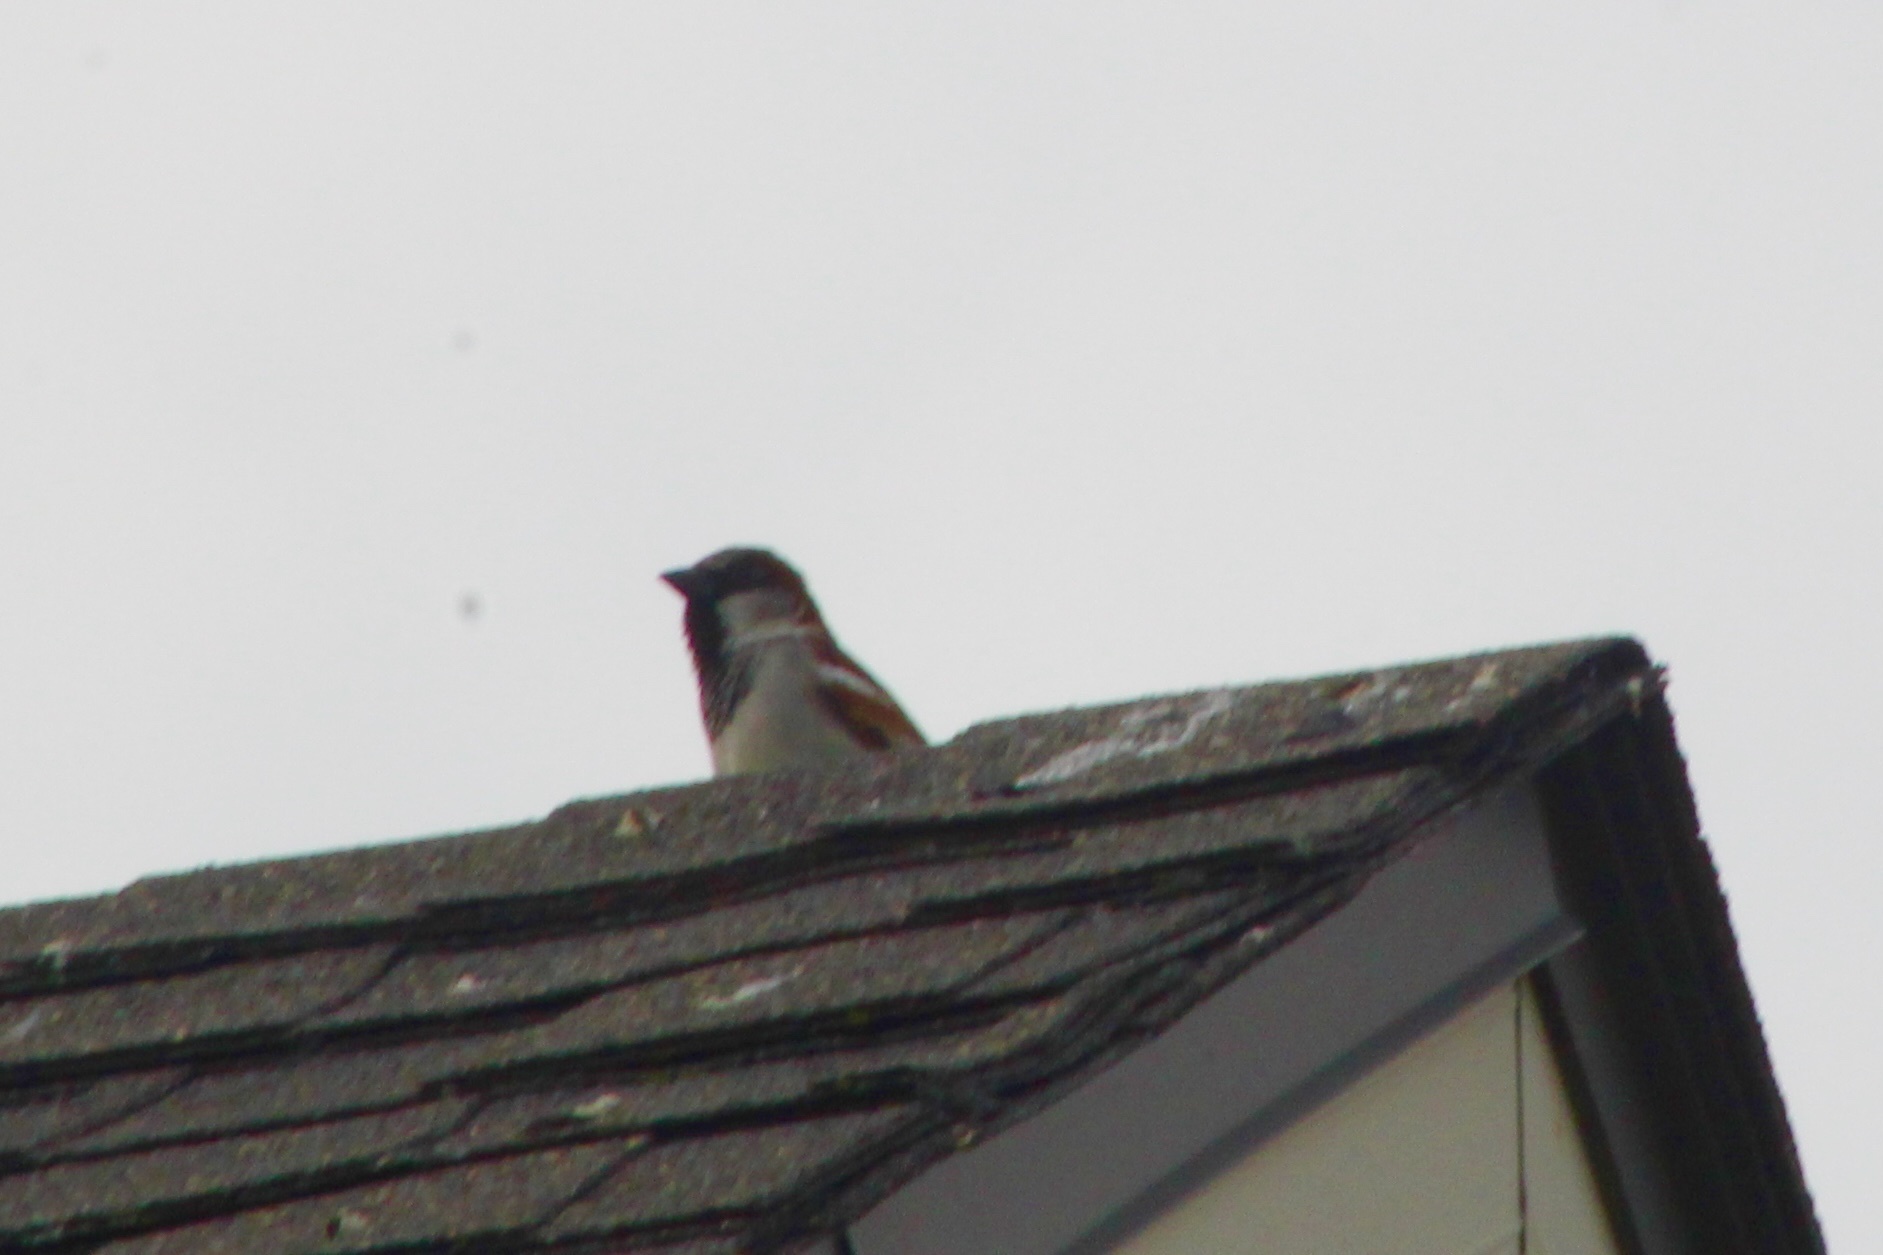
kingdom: Animalia
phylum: Chordata
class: Aves
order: Passeriformes
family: Passeridae
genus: Passer
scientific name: Passer domesticus
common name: House sparrow
